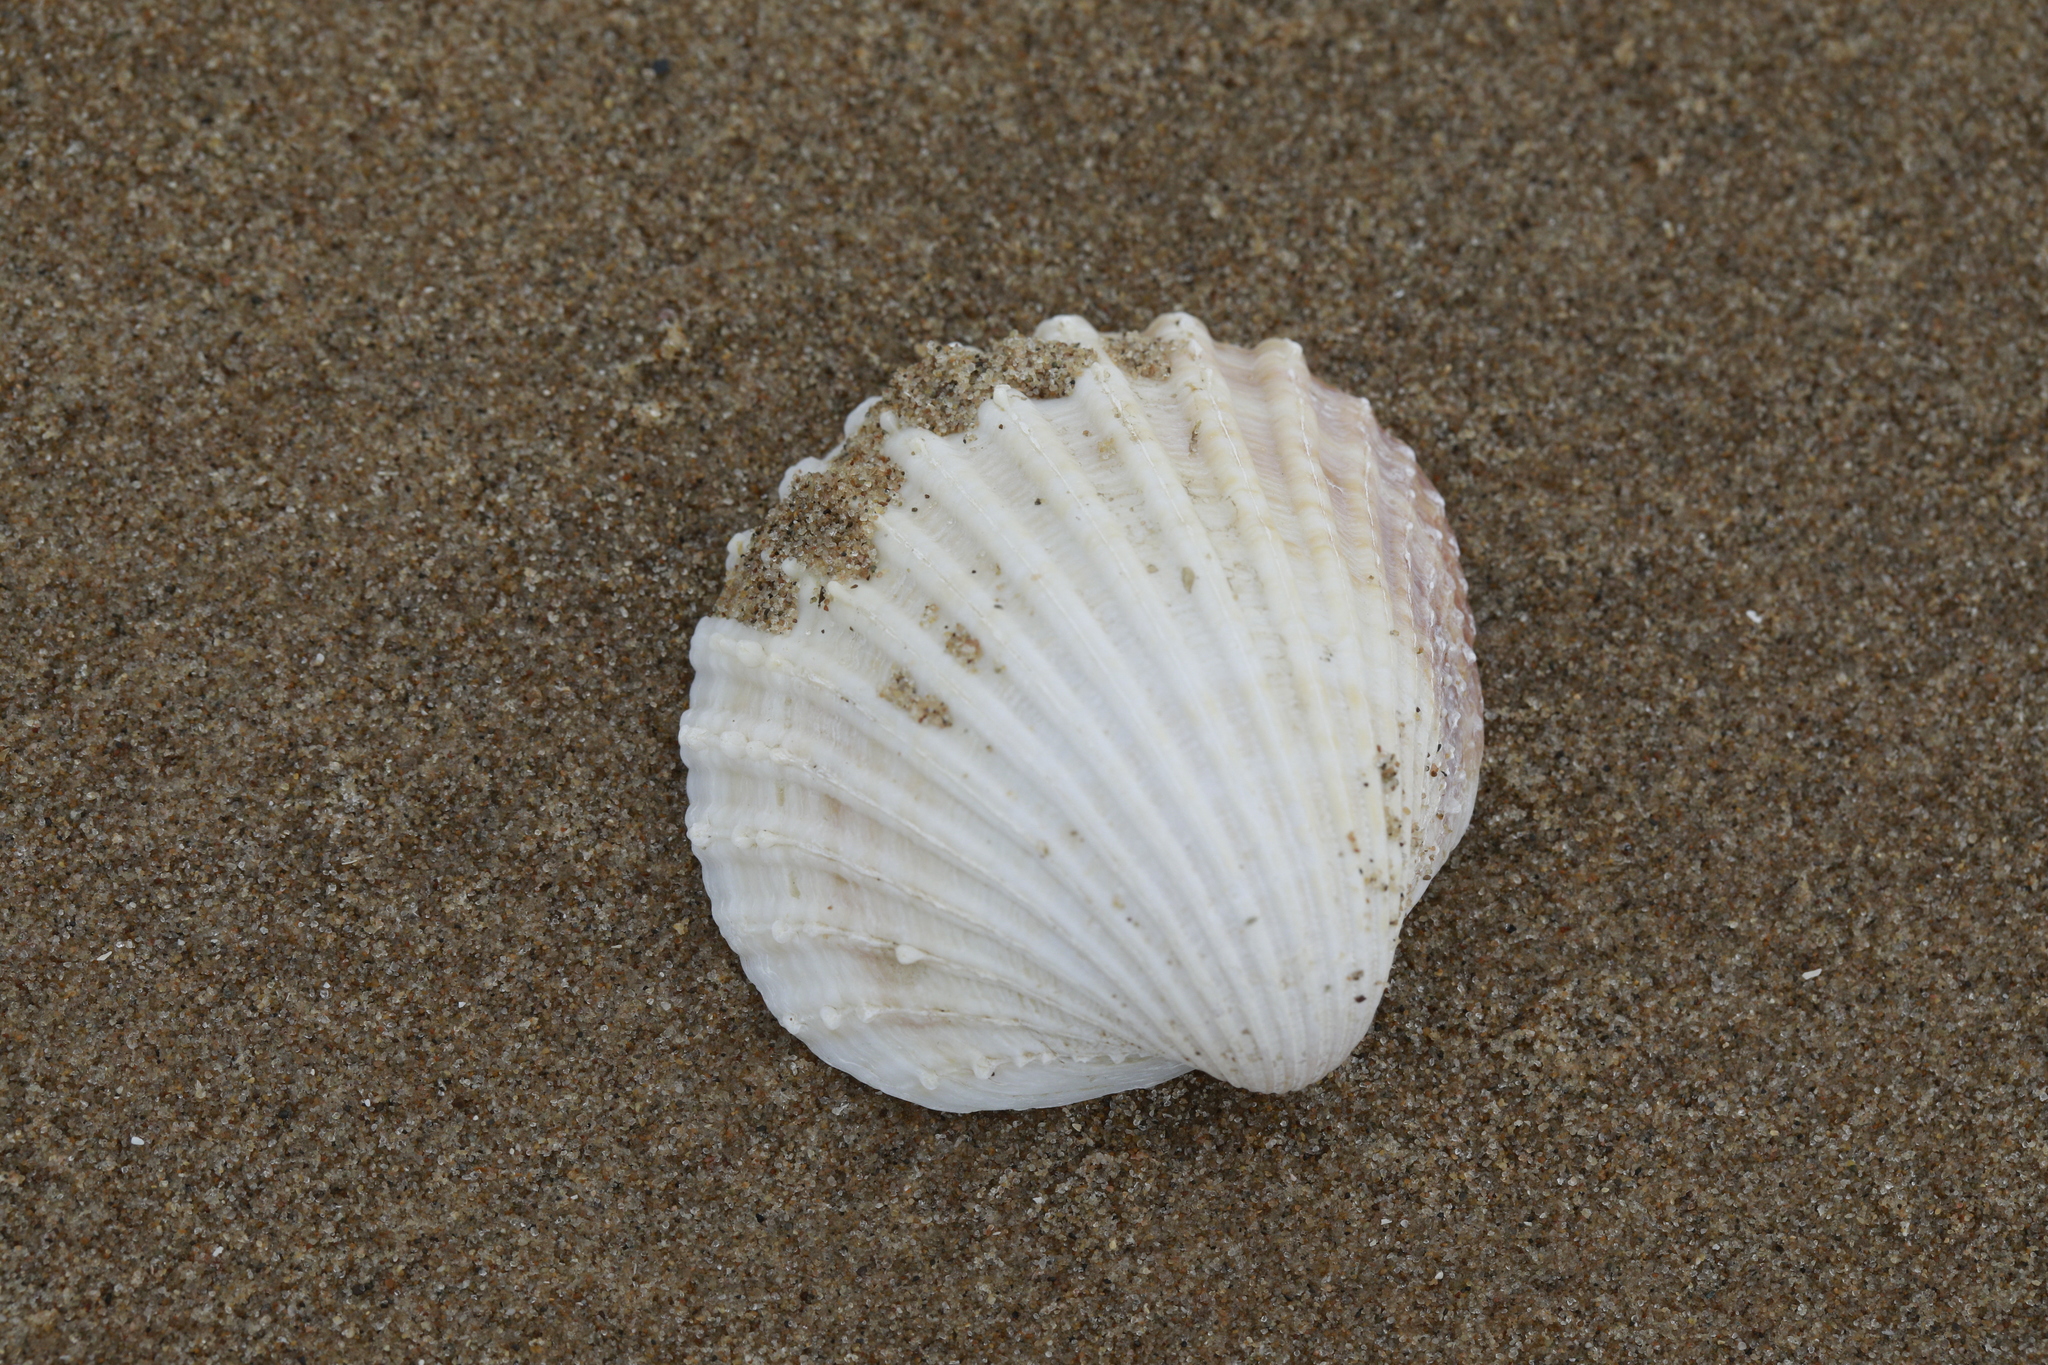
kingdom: Animalia
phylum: Mollusca
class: Bivalvia
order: Cardiida
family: Cardiidae
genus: Acanthocardia
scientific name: Acanthocardia echinata
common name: Prickly cockle
